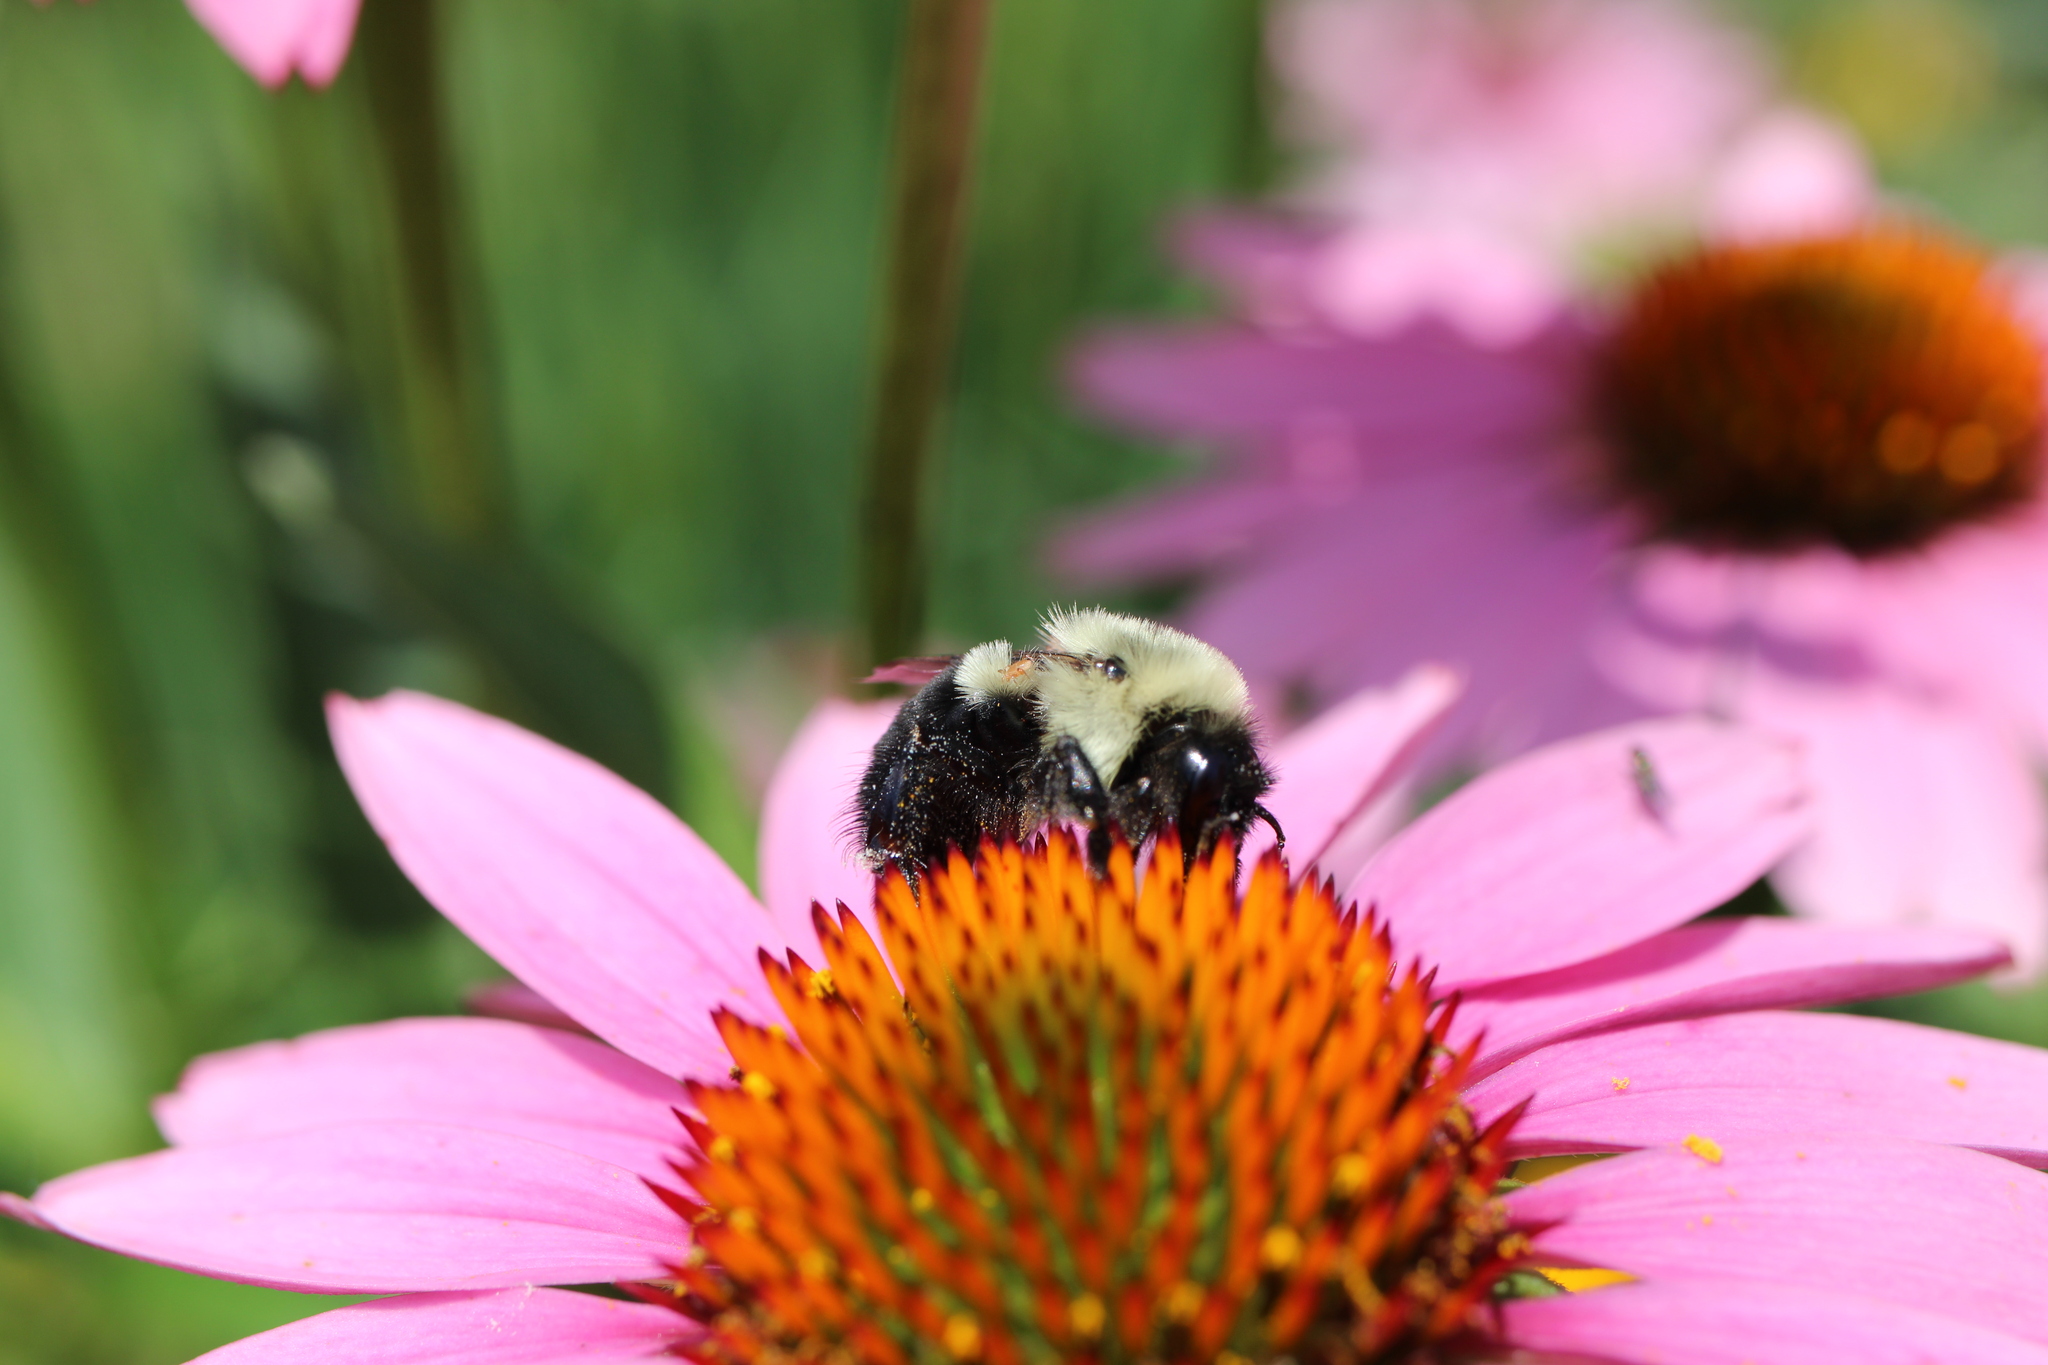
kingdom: Animalia
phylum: Arthropoda
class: Insecta
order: Hymenoptera
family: Apidae
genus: Bombus
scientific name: Bombus impatiens
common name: Common eastern bumble bee
